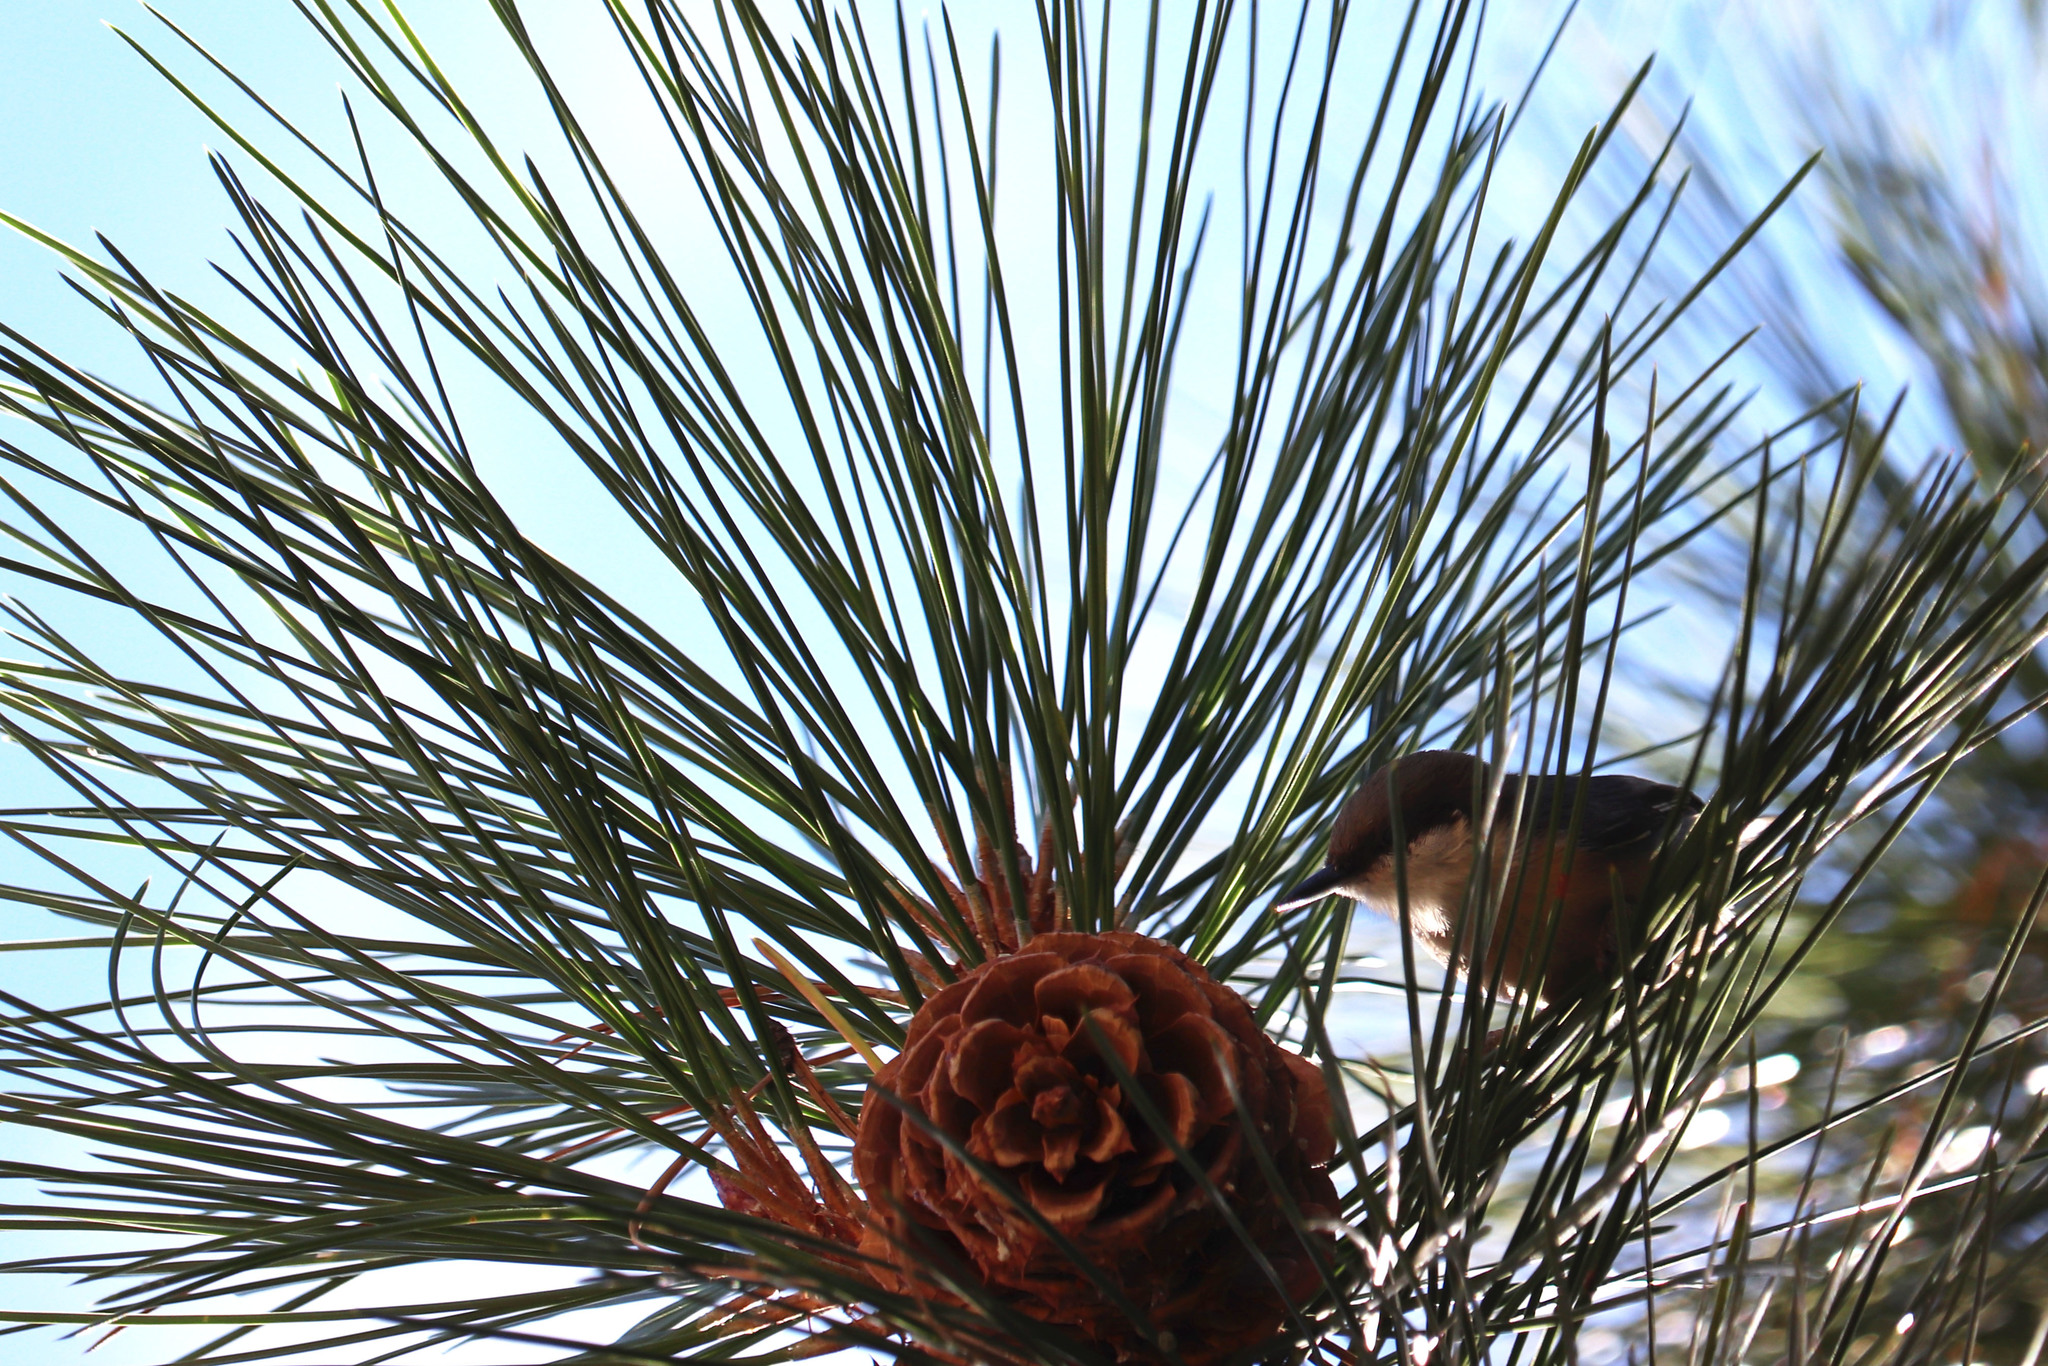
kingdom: Animalia
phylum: Chordata
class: Aves
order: Passeriformes
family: Sittidae
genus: Sitta
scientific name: Sitta pygmaea
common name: Pygmy nuthatch
